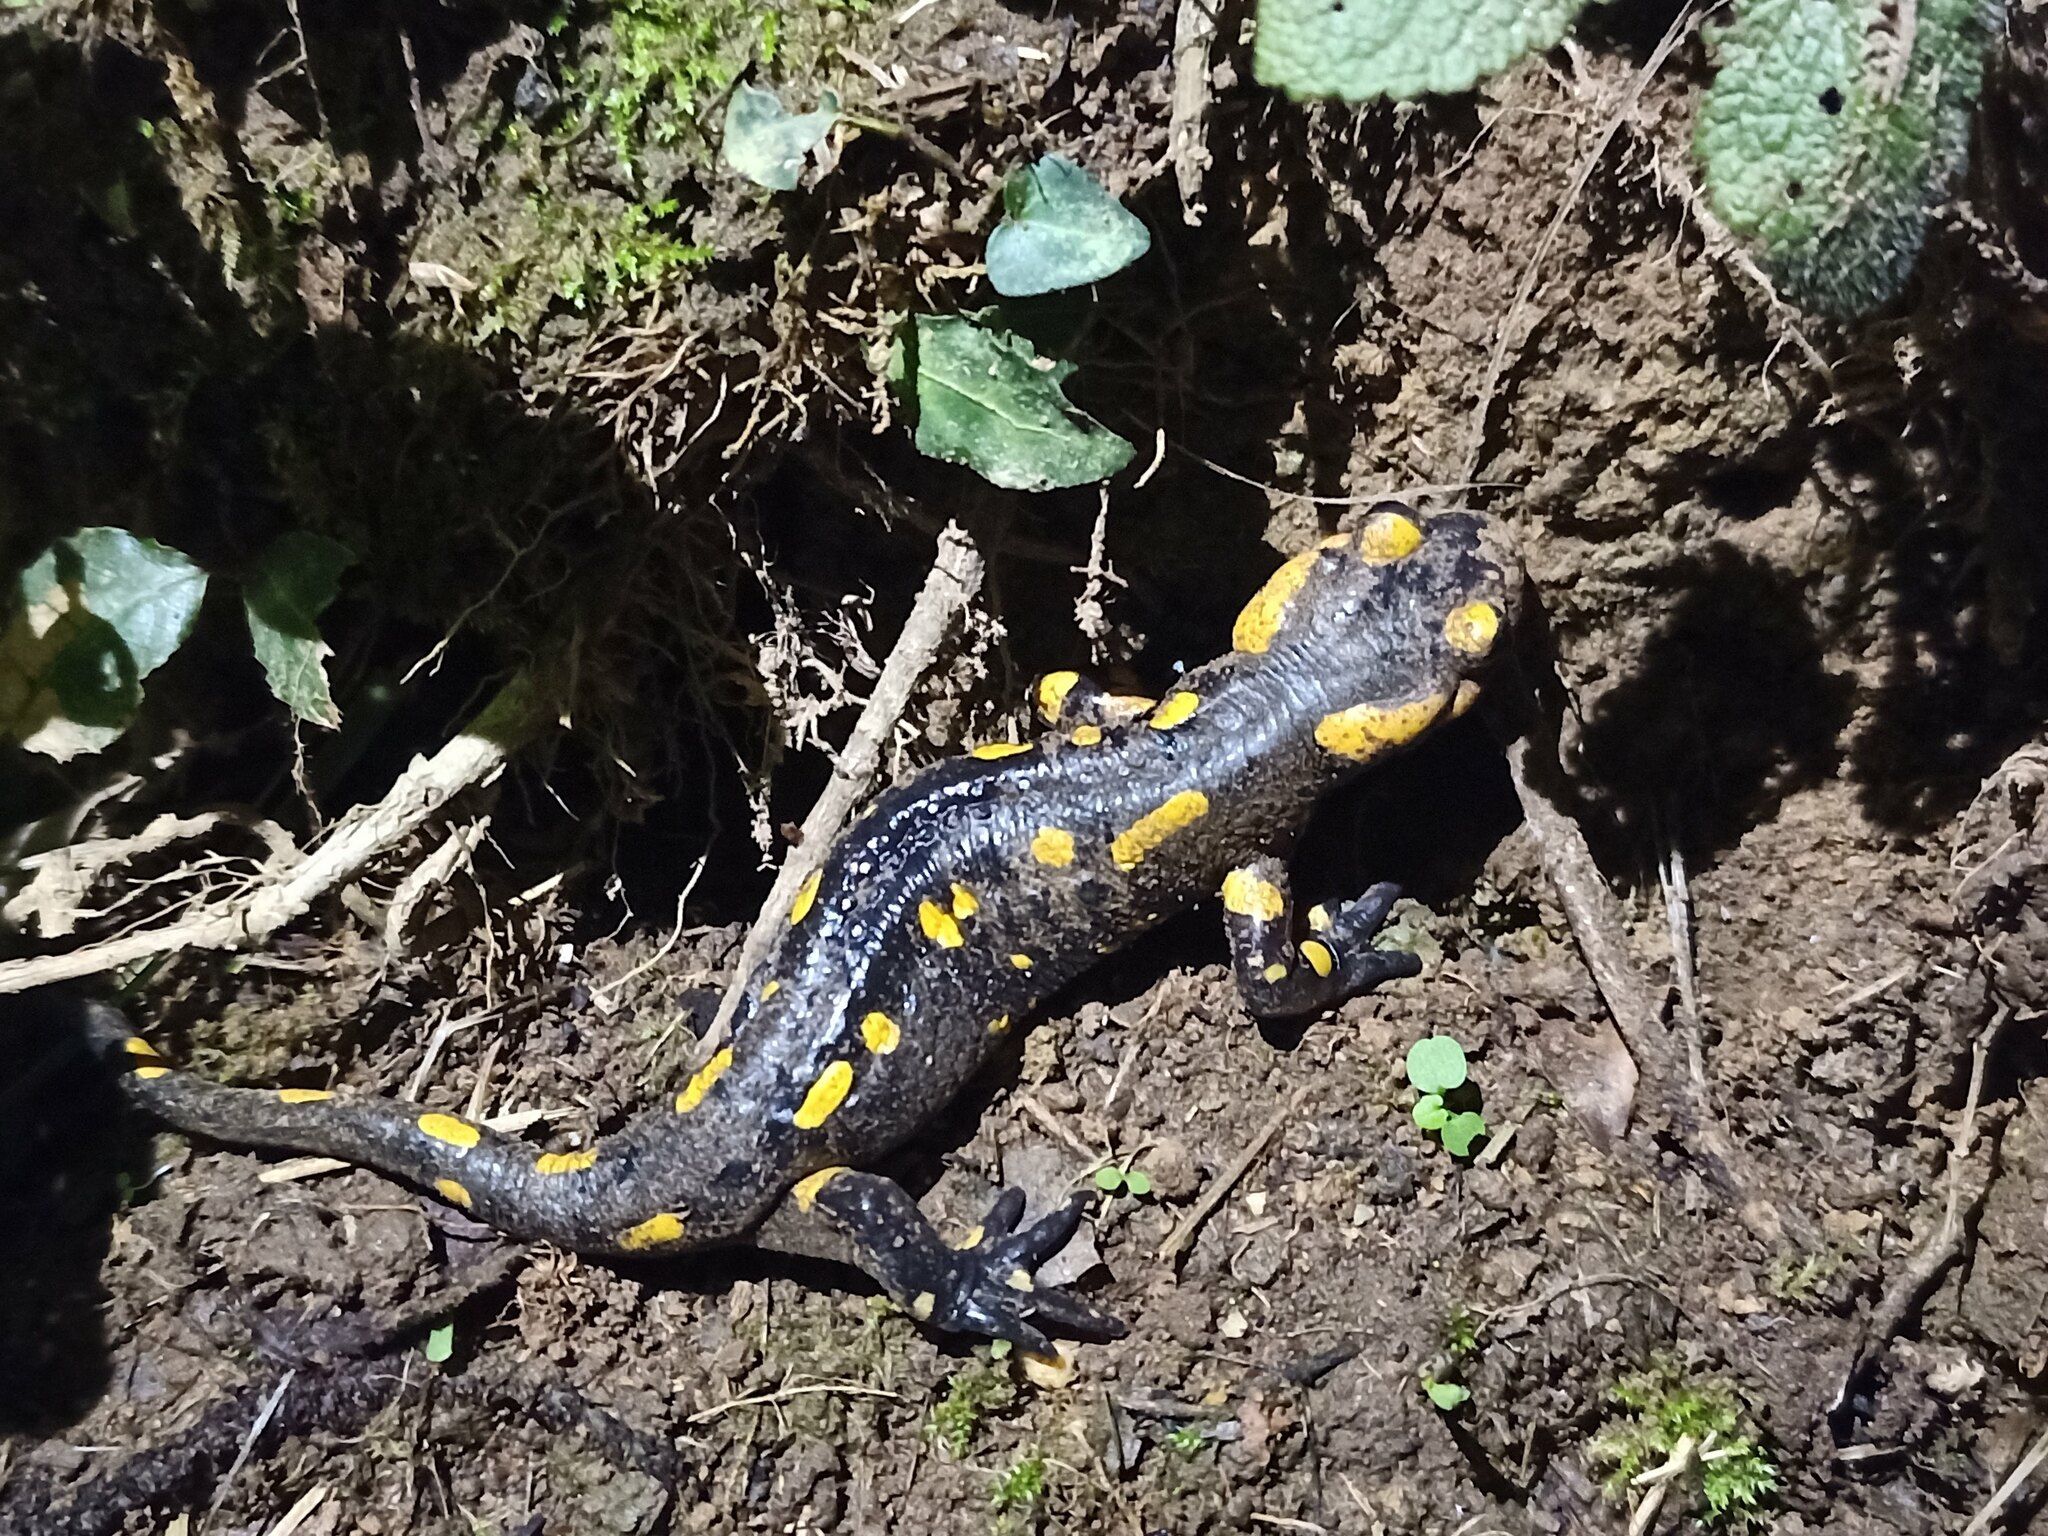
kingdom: Animalia
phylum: Chordata
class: Amphibia
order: Caudata
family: Salamandridae
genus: Salamandra
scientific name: Salamandra salamandra
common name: Fire salamander
